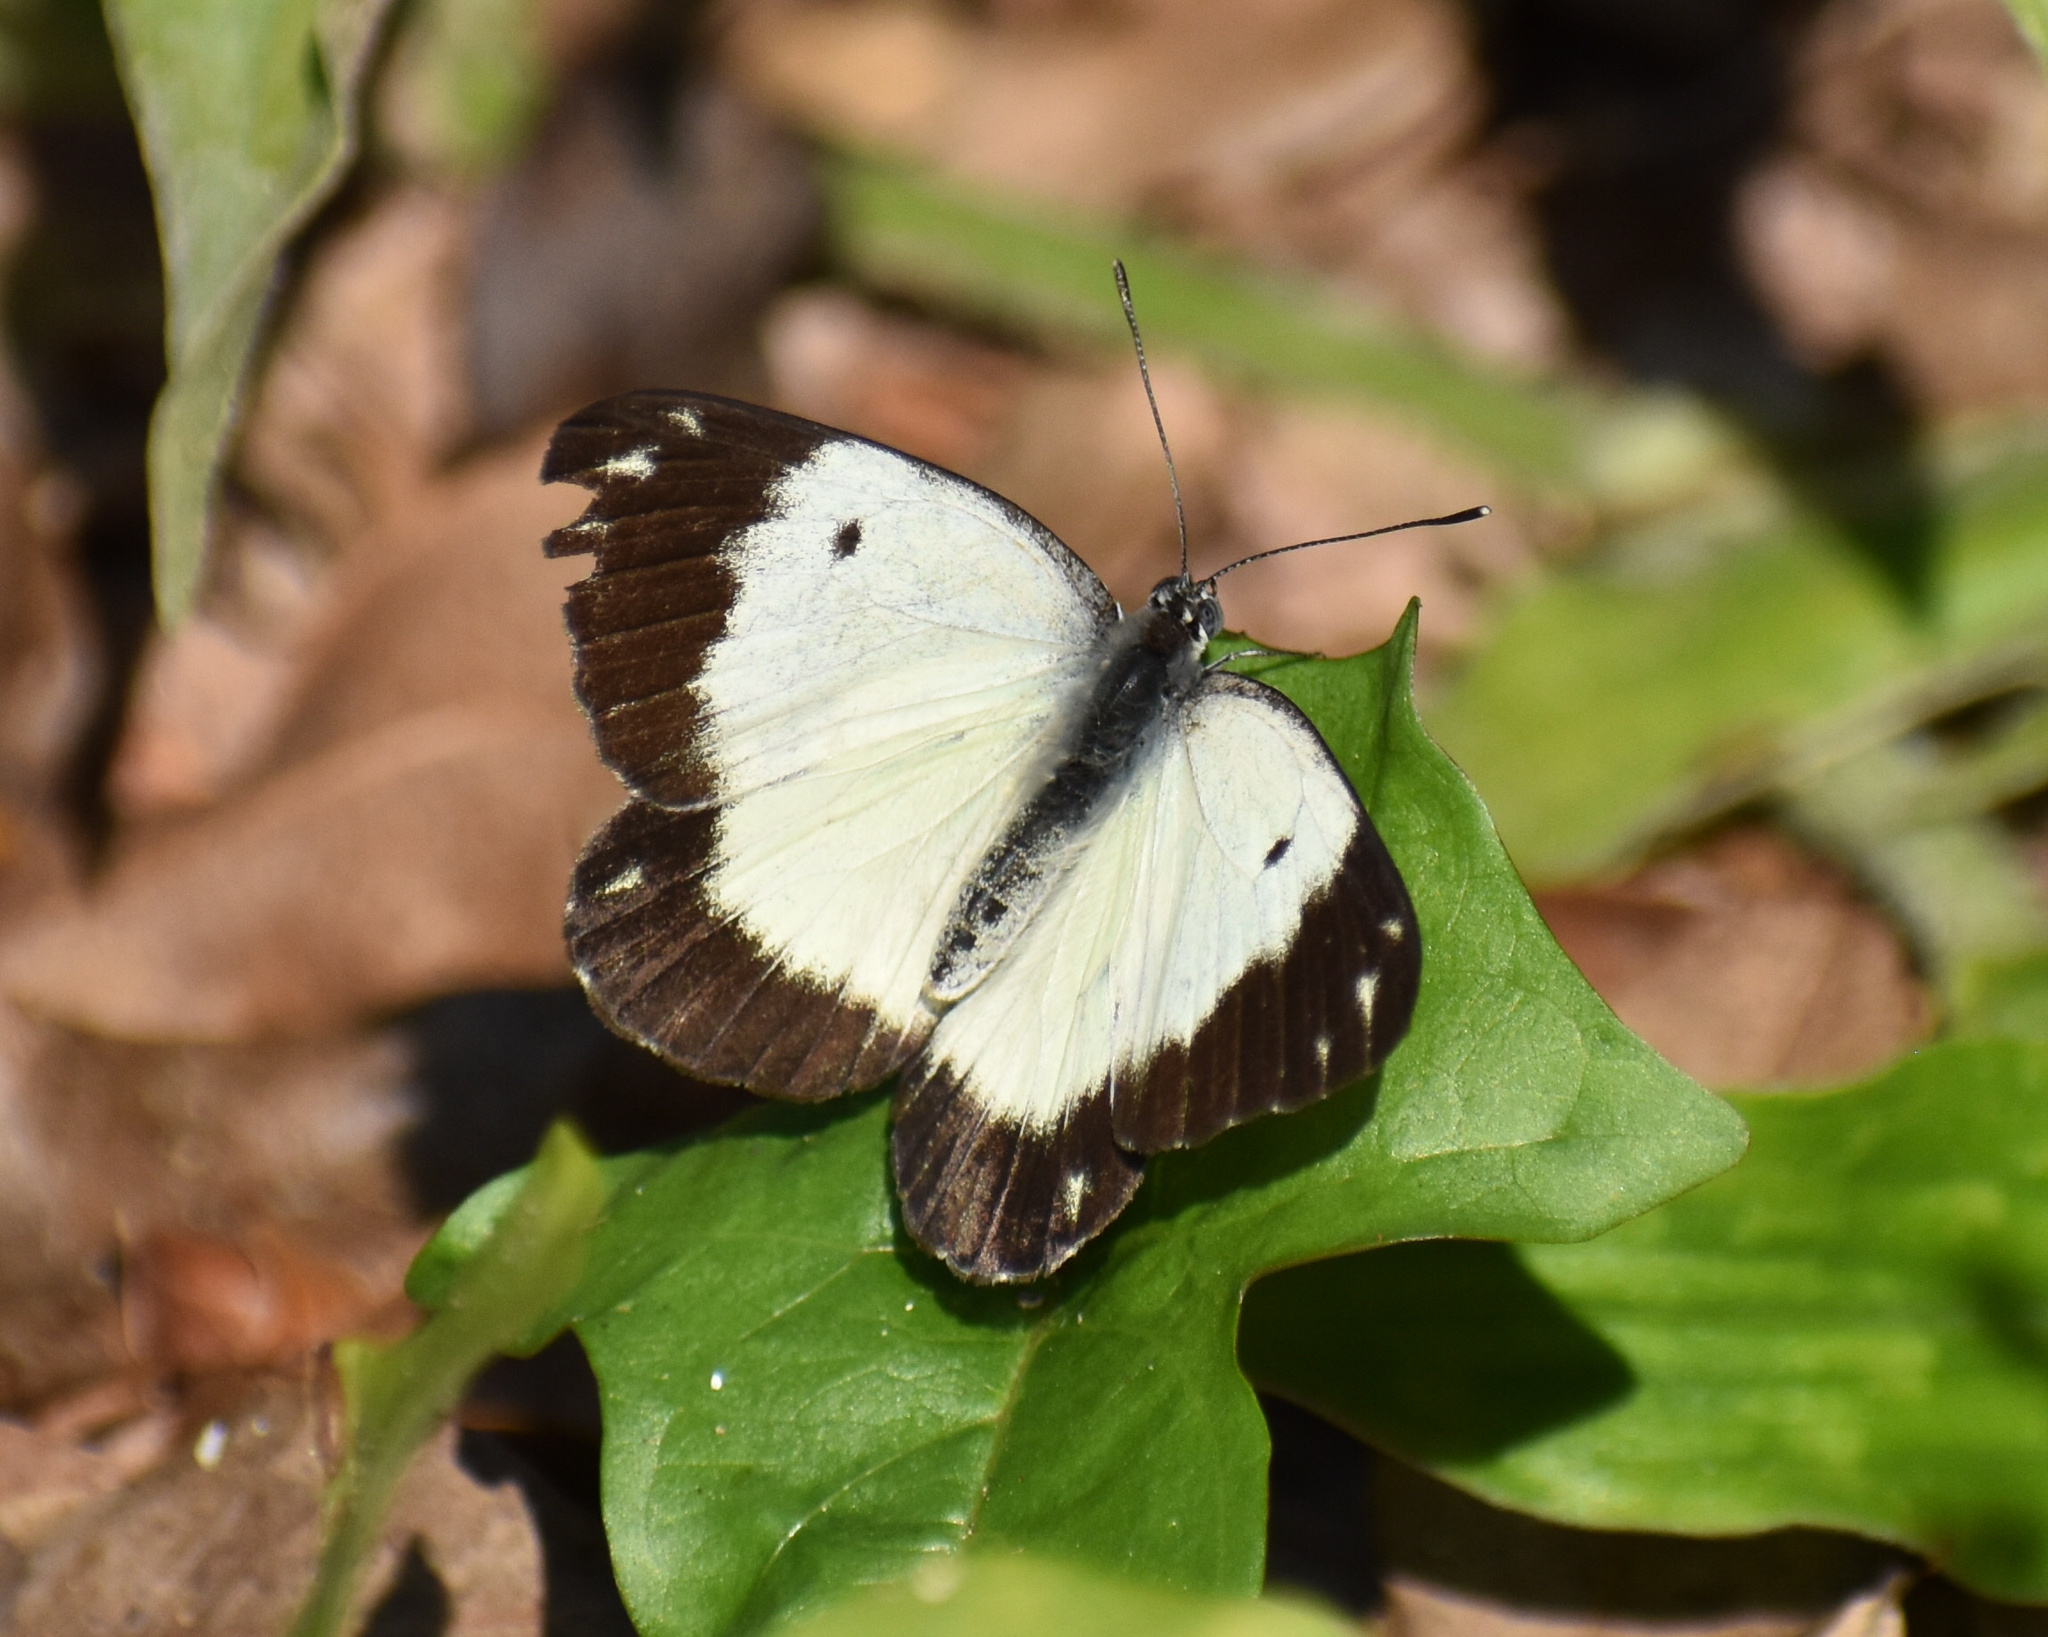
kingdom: Animalia
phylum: Arthropoda
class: Insecta
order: Lepidoptera
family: Pieridae
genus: Belenois
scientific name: Belenois creona
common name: African caper white
